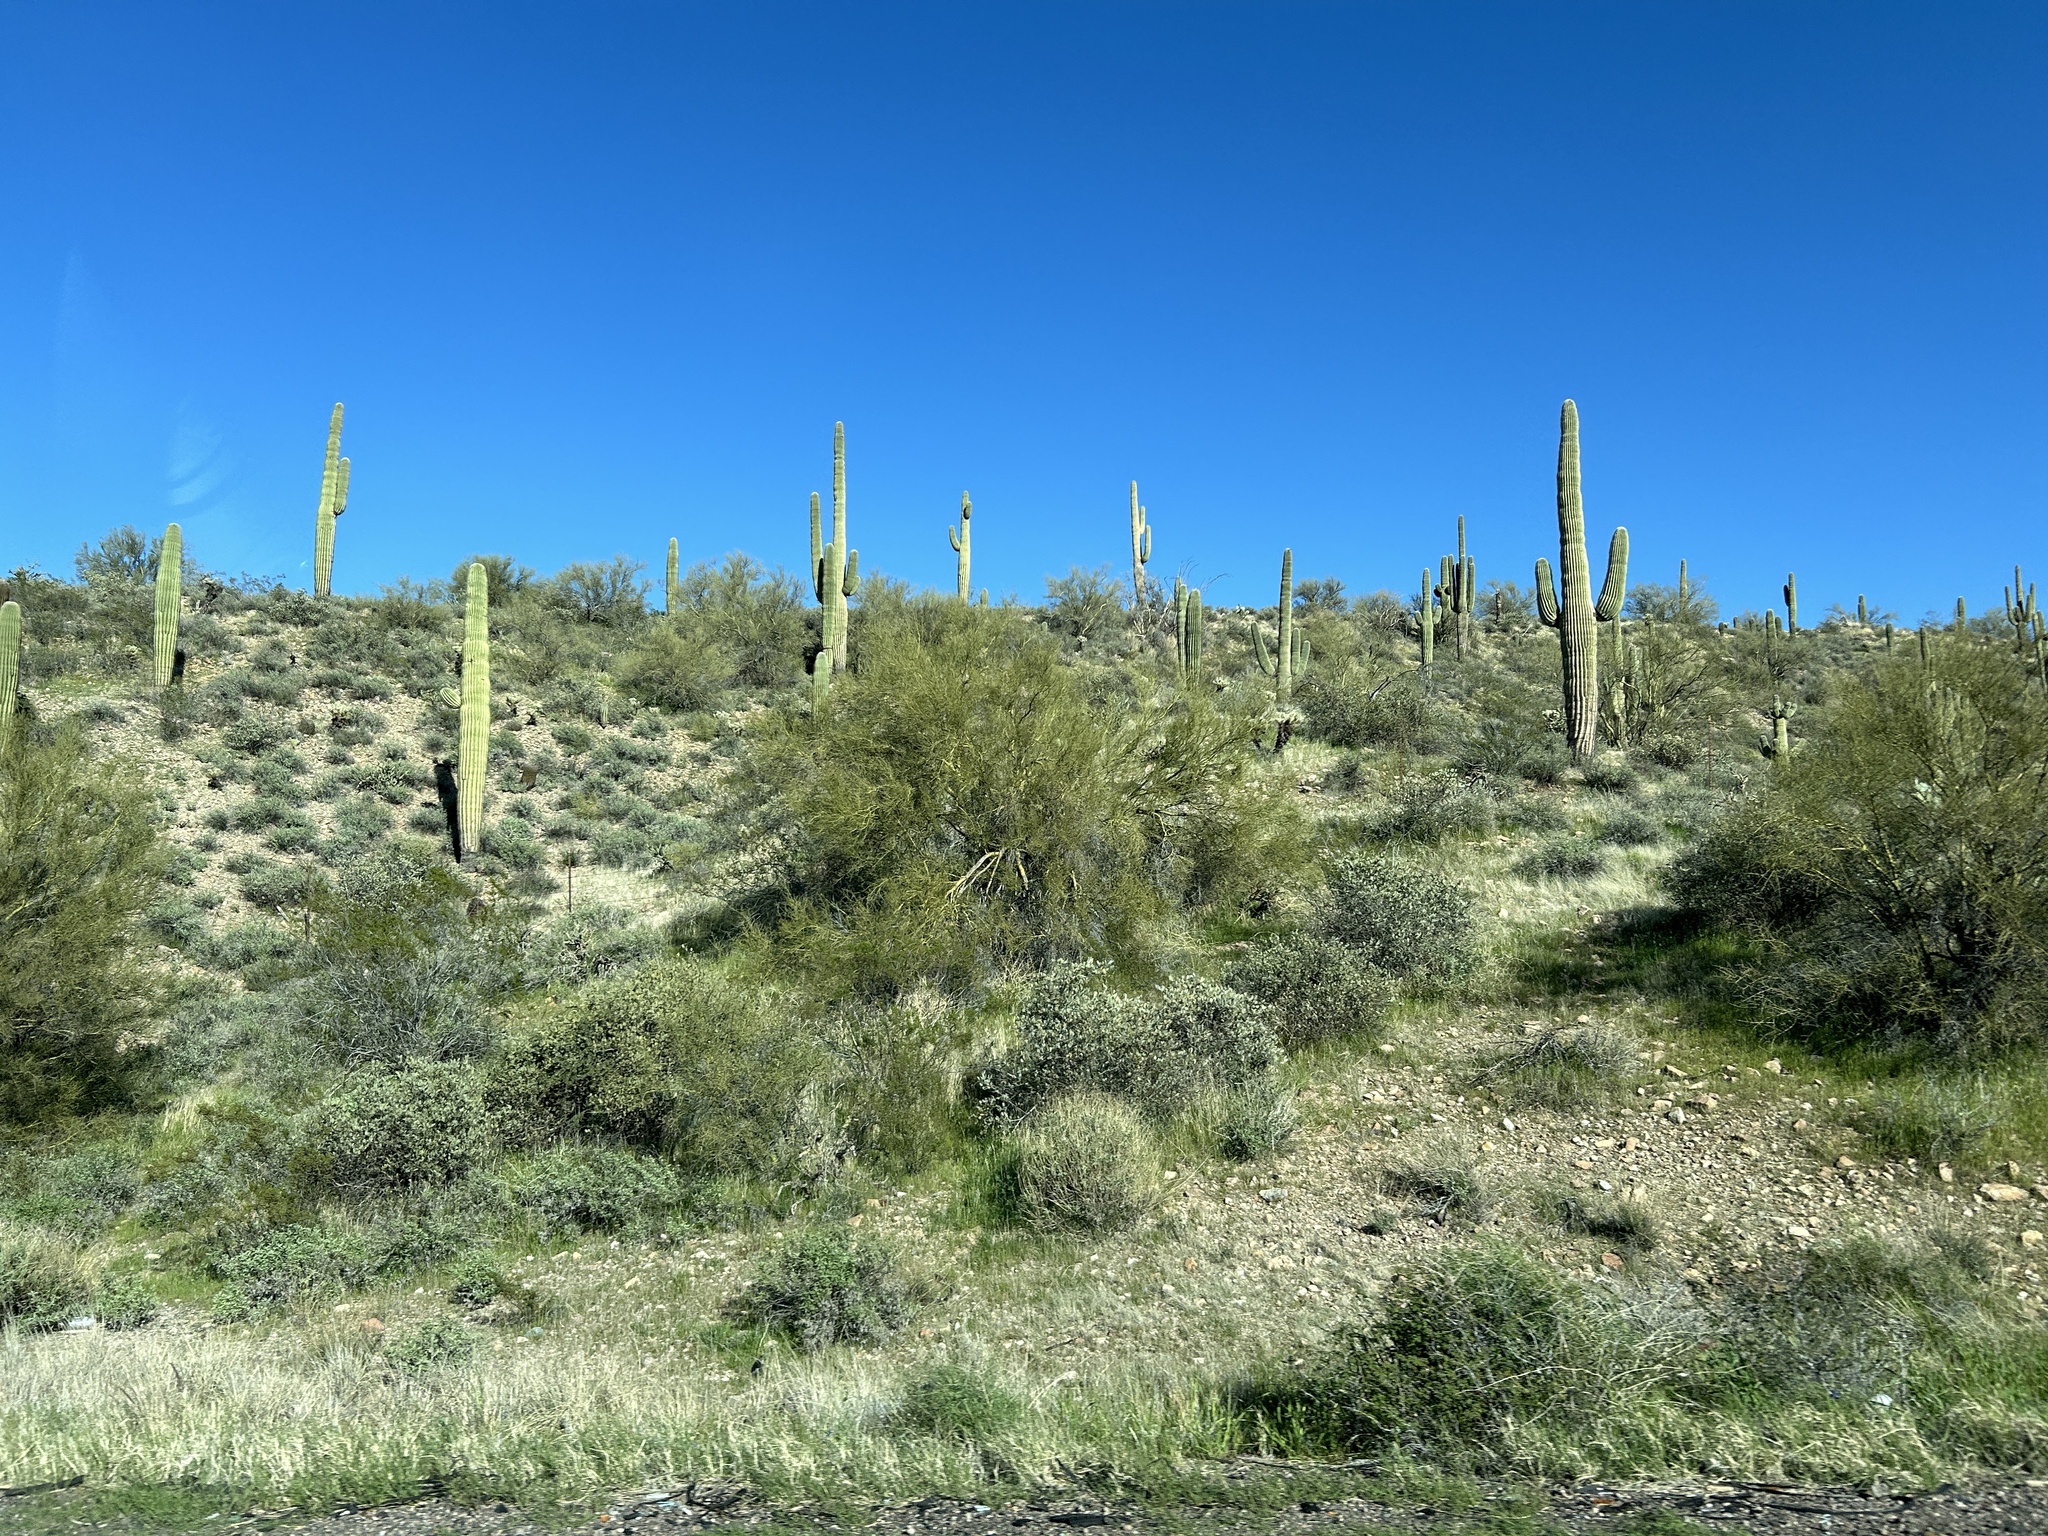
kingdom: Plantae
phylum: Tracheophyta
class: Magnoliopsida
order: Caryophyllales
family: Cactaceae
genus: Carnegiea
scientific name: Carnegiea gigantea
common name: Saguaro
